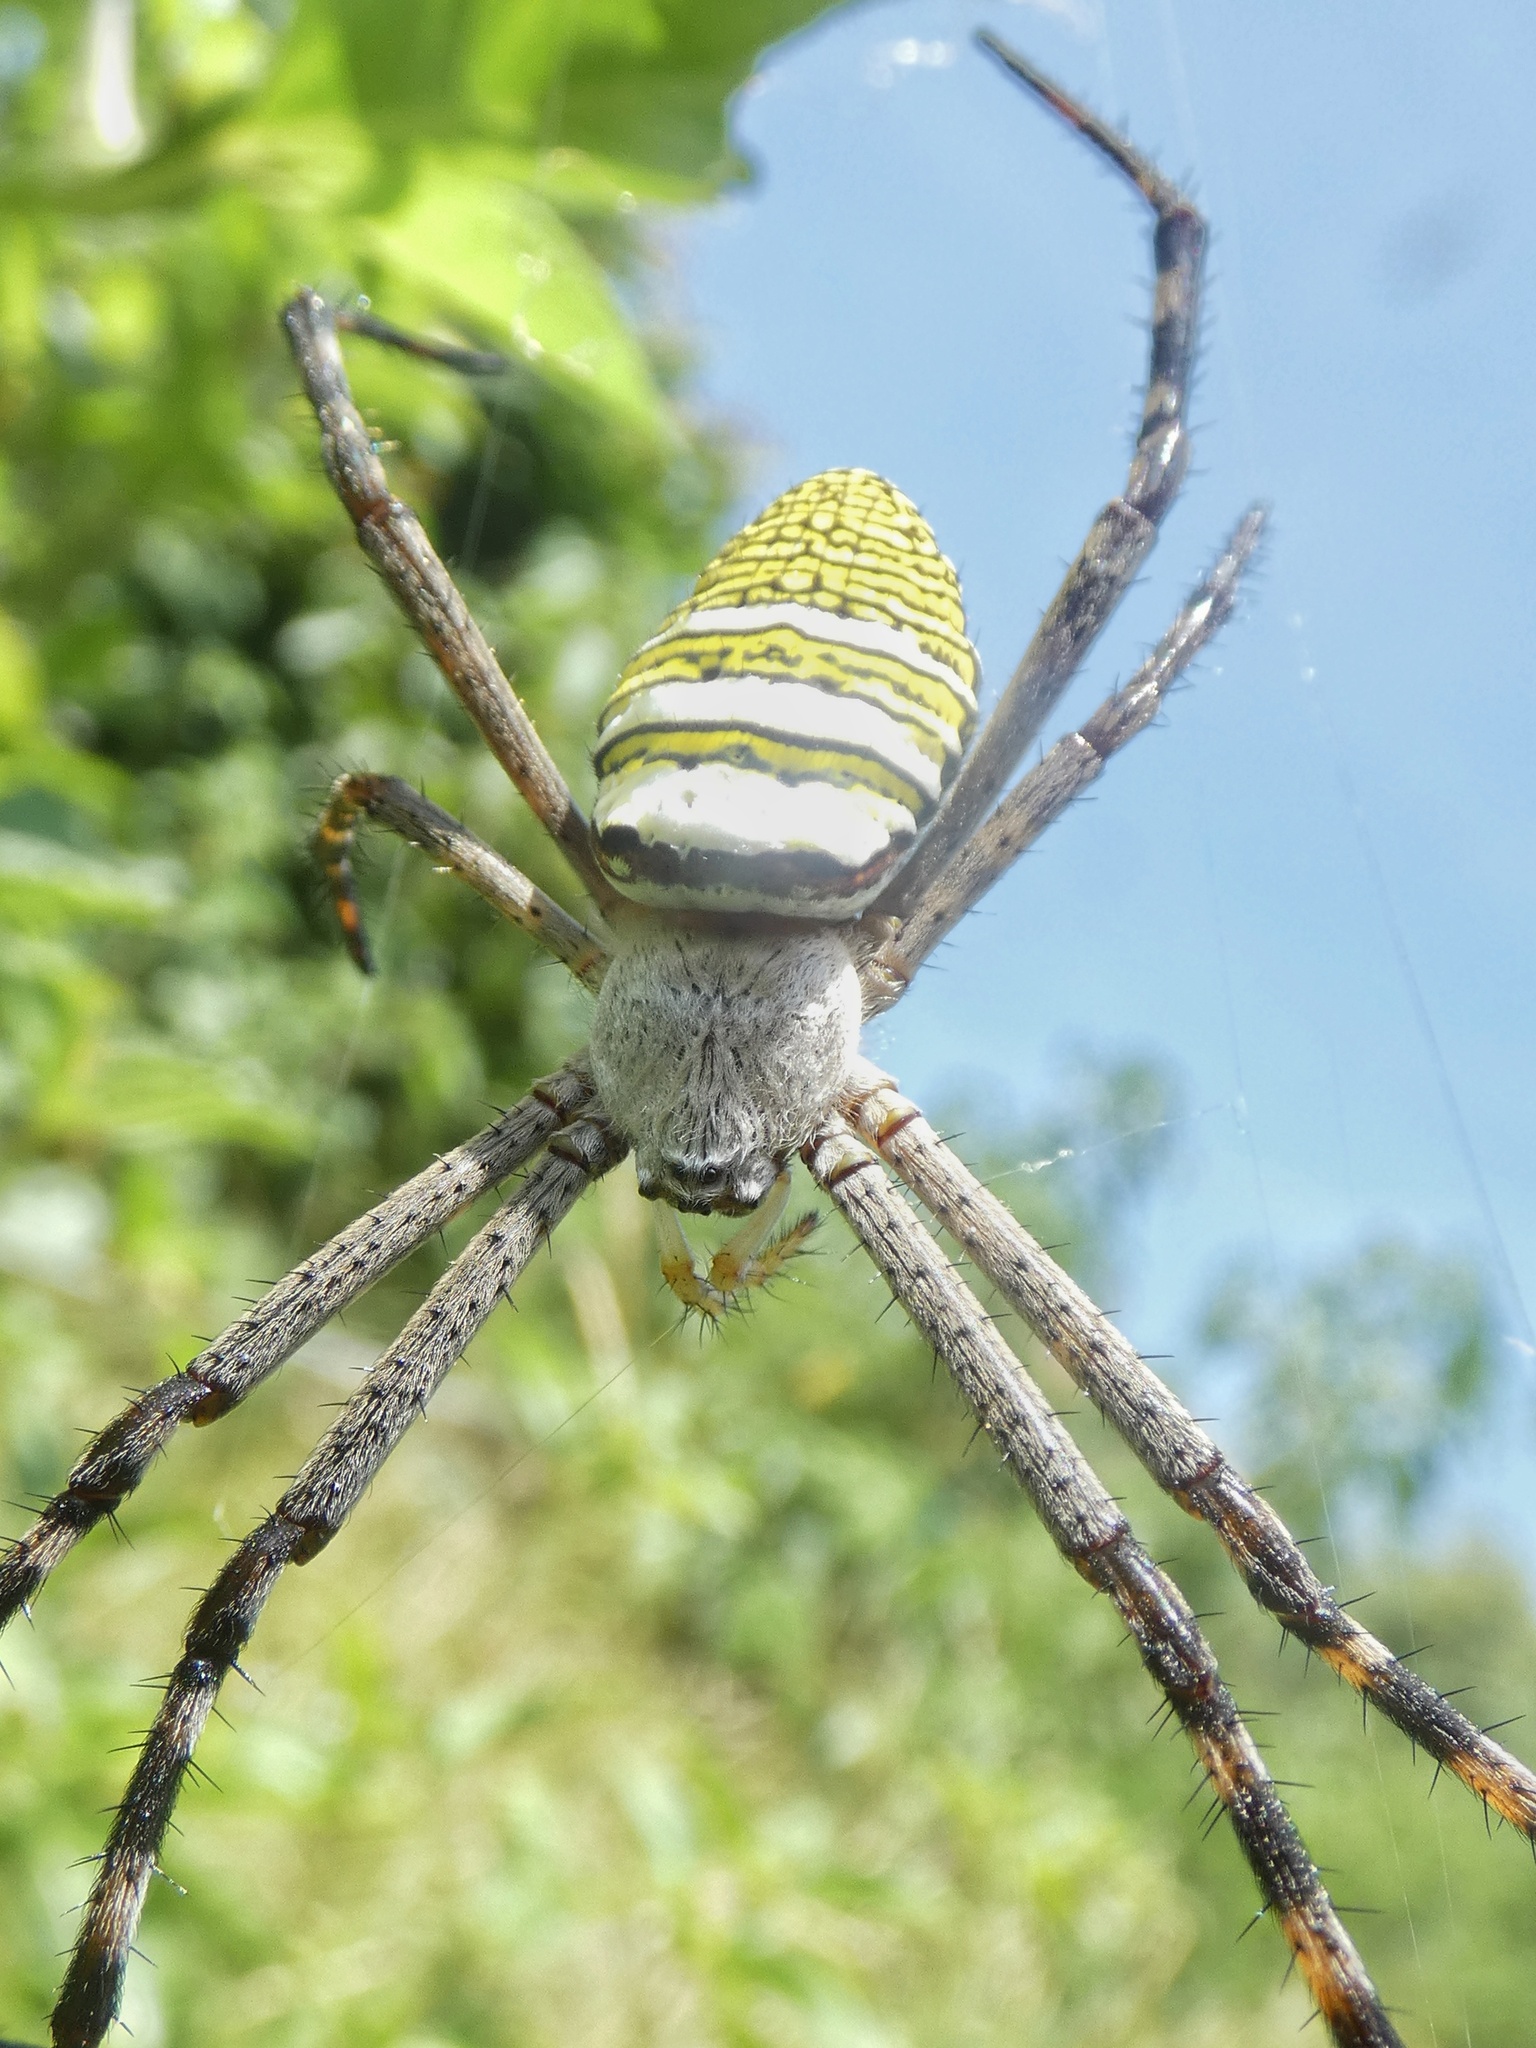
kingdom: Animalia
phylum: Arthropoda
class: Arachnida
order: Araneae
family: Araneidae
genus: Argiope
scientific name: Argiope aemula
